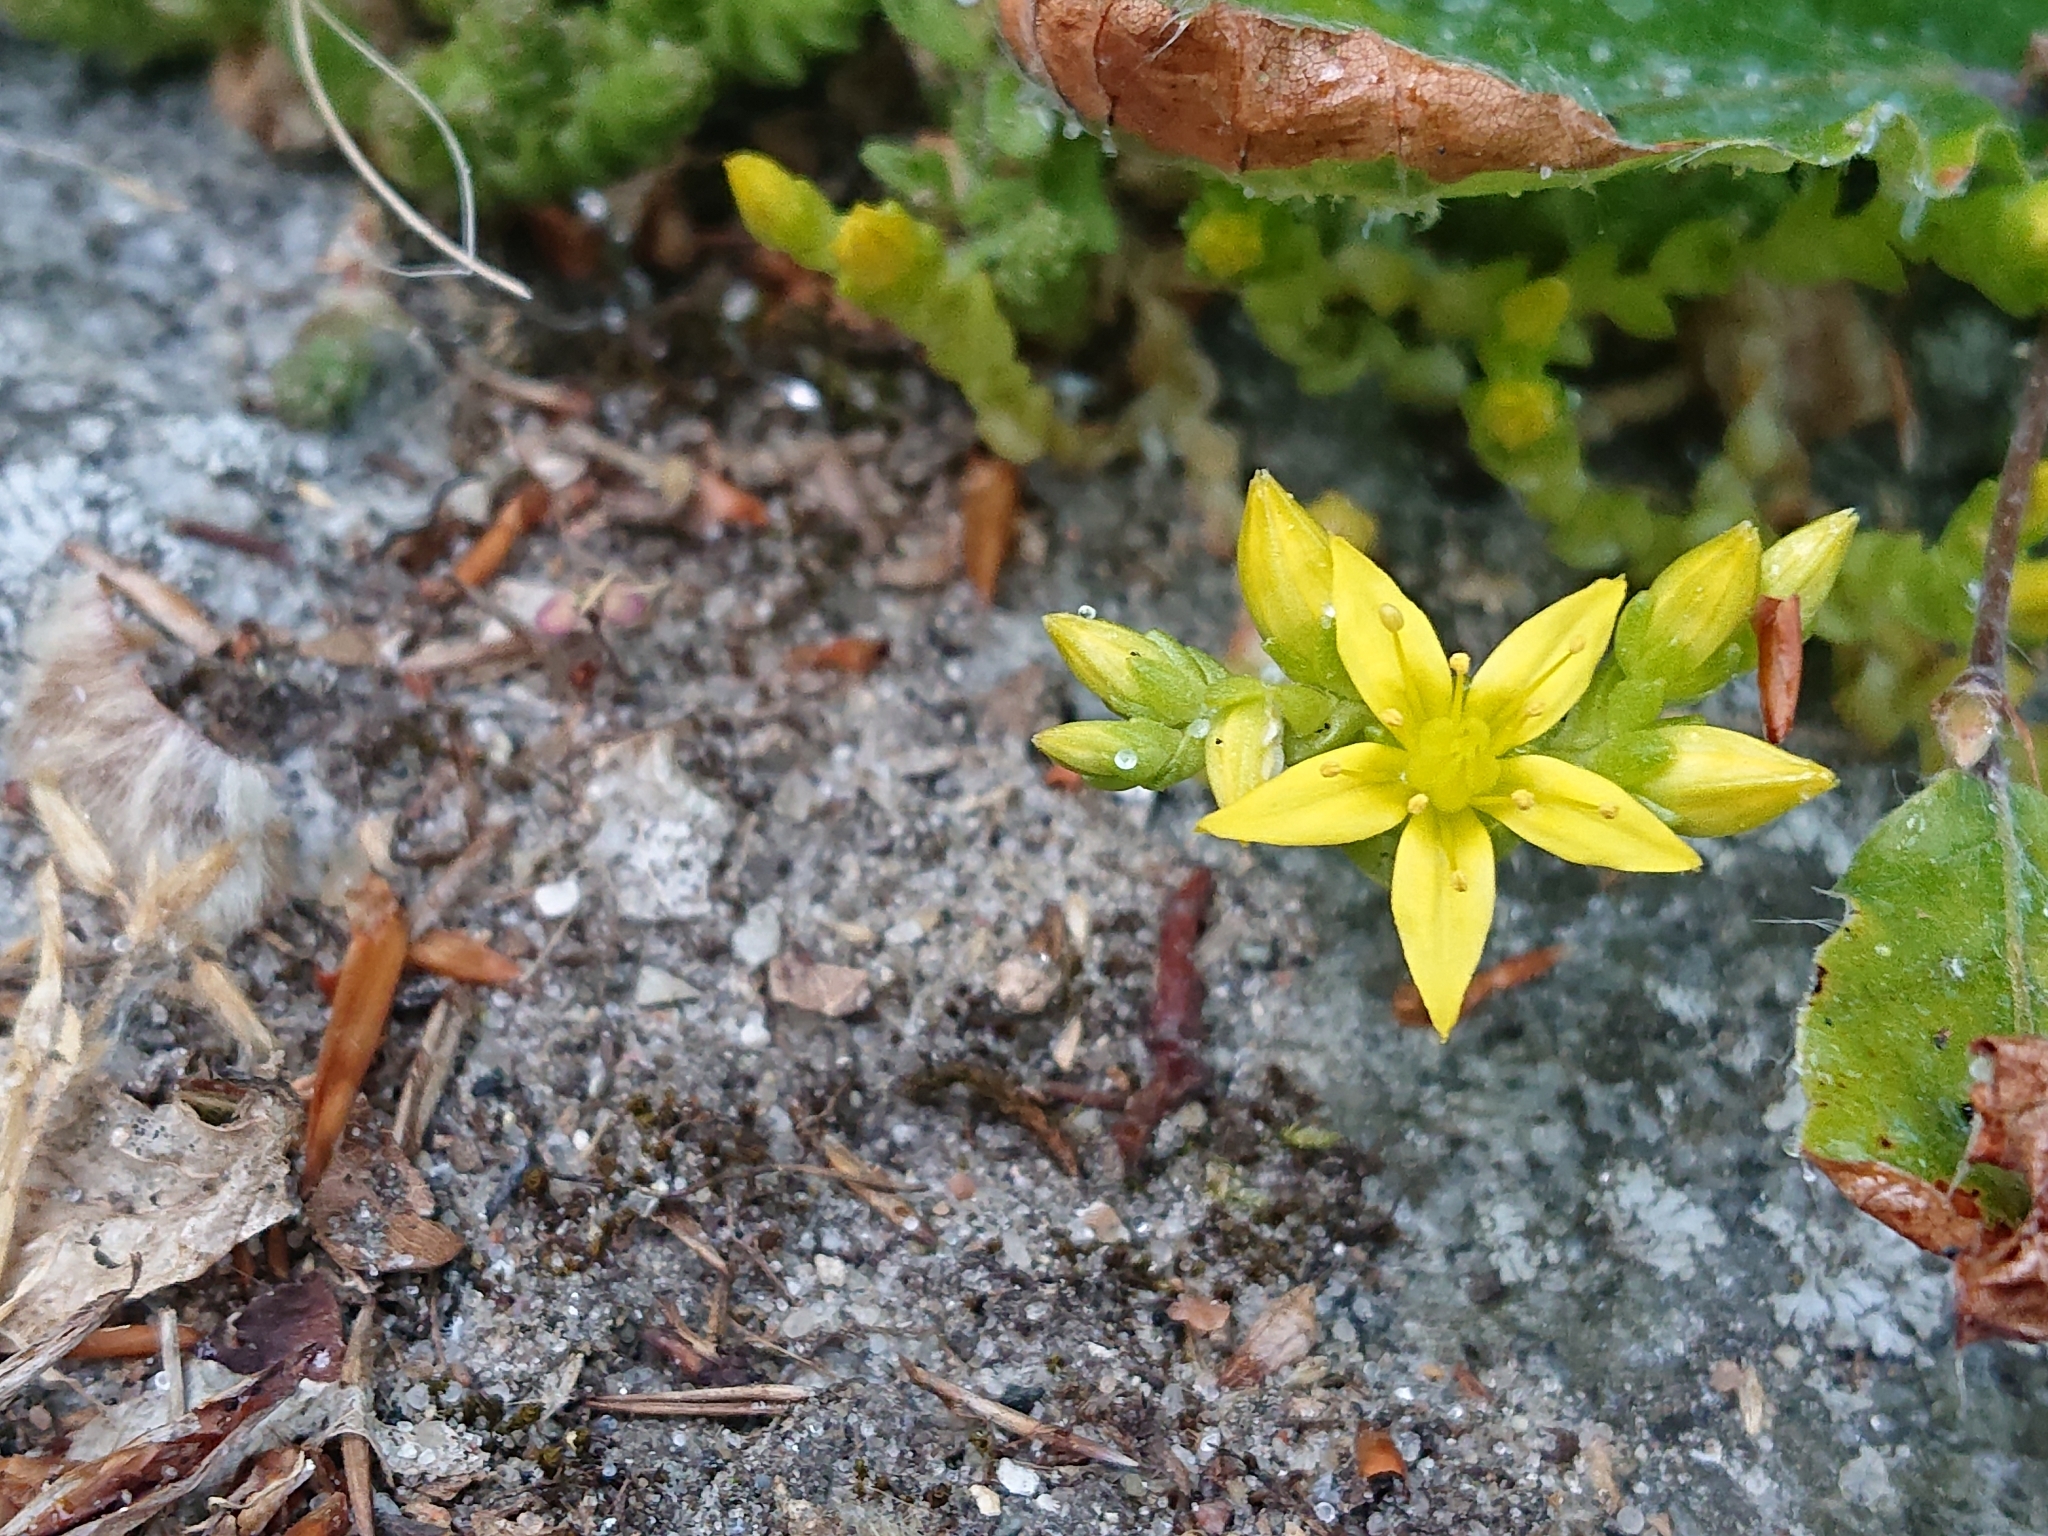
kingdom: Plantae
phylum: Tracheophyta
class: Magnoliopsida
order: Saxifragales
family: Crassulaceae
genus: Sedum
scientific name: Sedum acre
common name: Biting stonecrop
